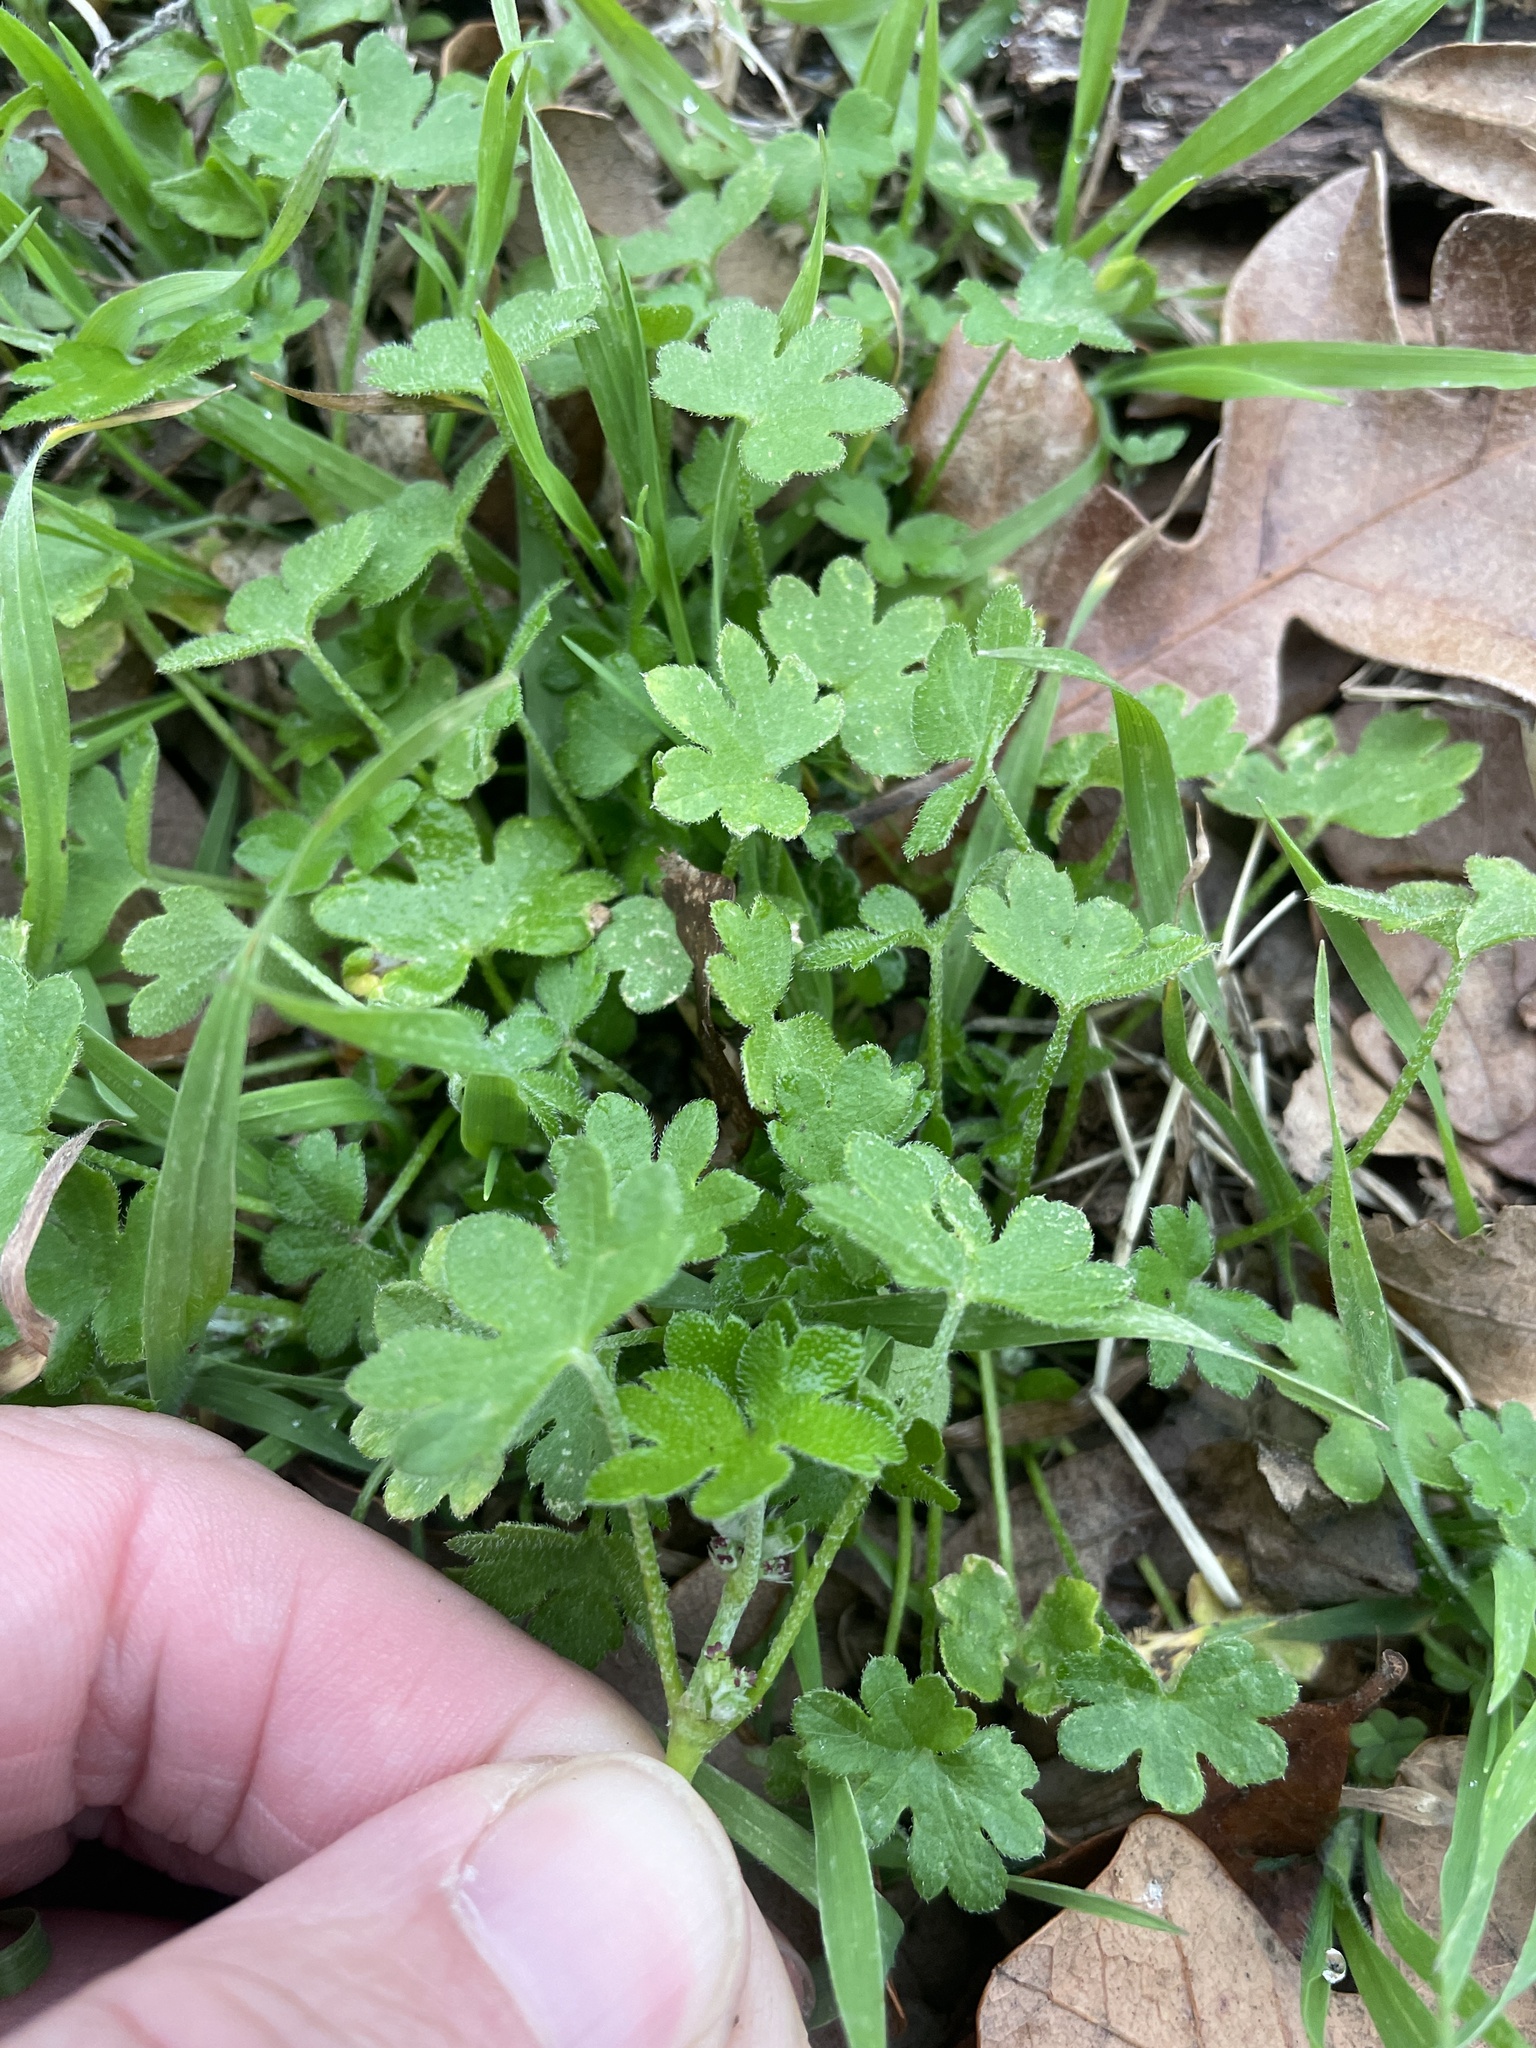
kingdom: Plantae
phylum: Tracheophyta
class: Magnoliopsida
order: Apiales
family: Apiaceae
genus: Bowlesia
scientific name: Bowlesia incana
